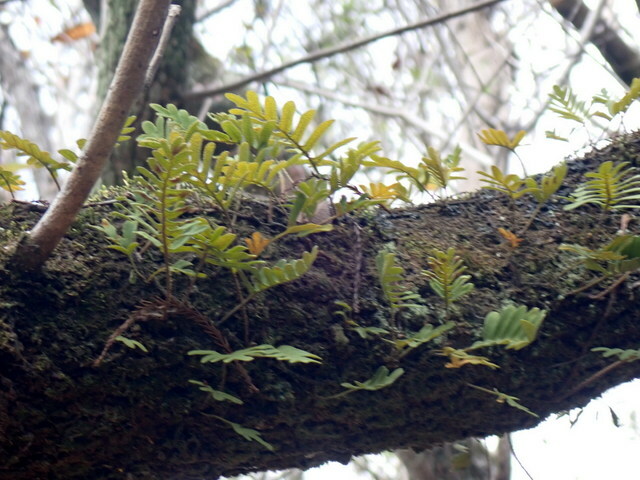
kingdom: Plantae
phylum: Tracheophyta
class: Polypodiopsida
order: Polypodiales
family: Polypodiaceae
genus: Pleopeltis
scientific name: Pleopeltis michauxiana
